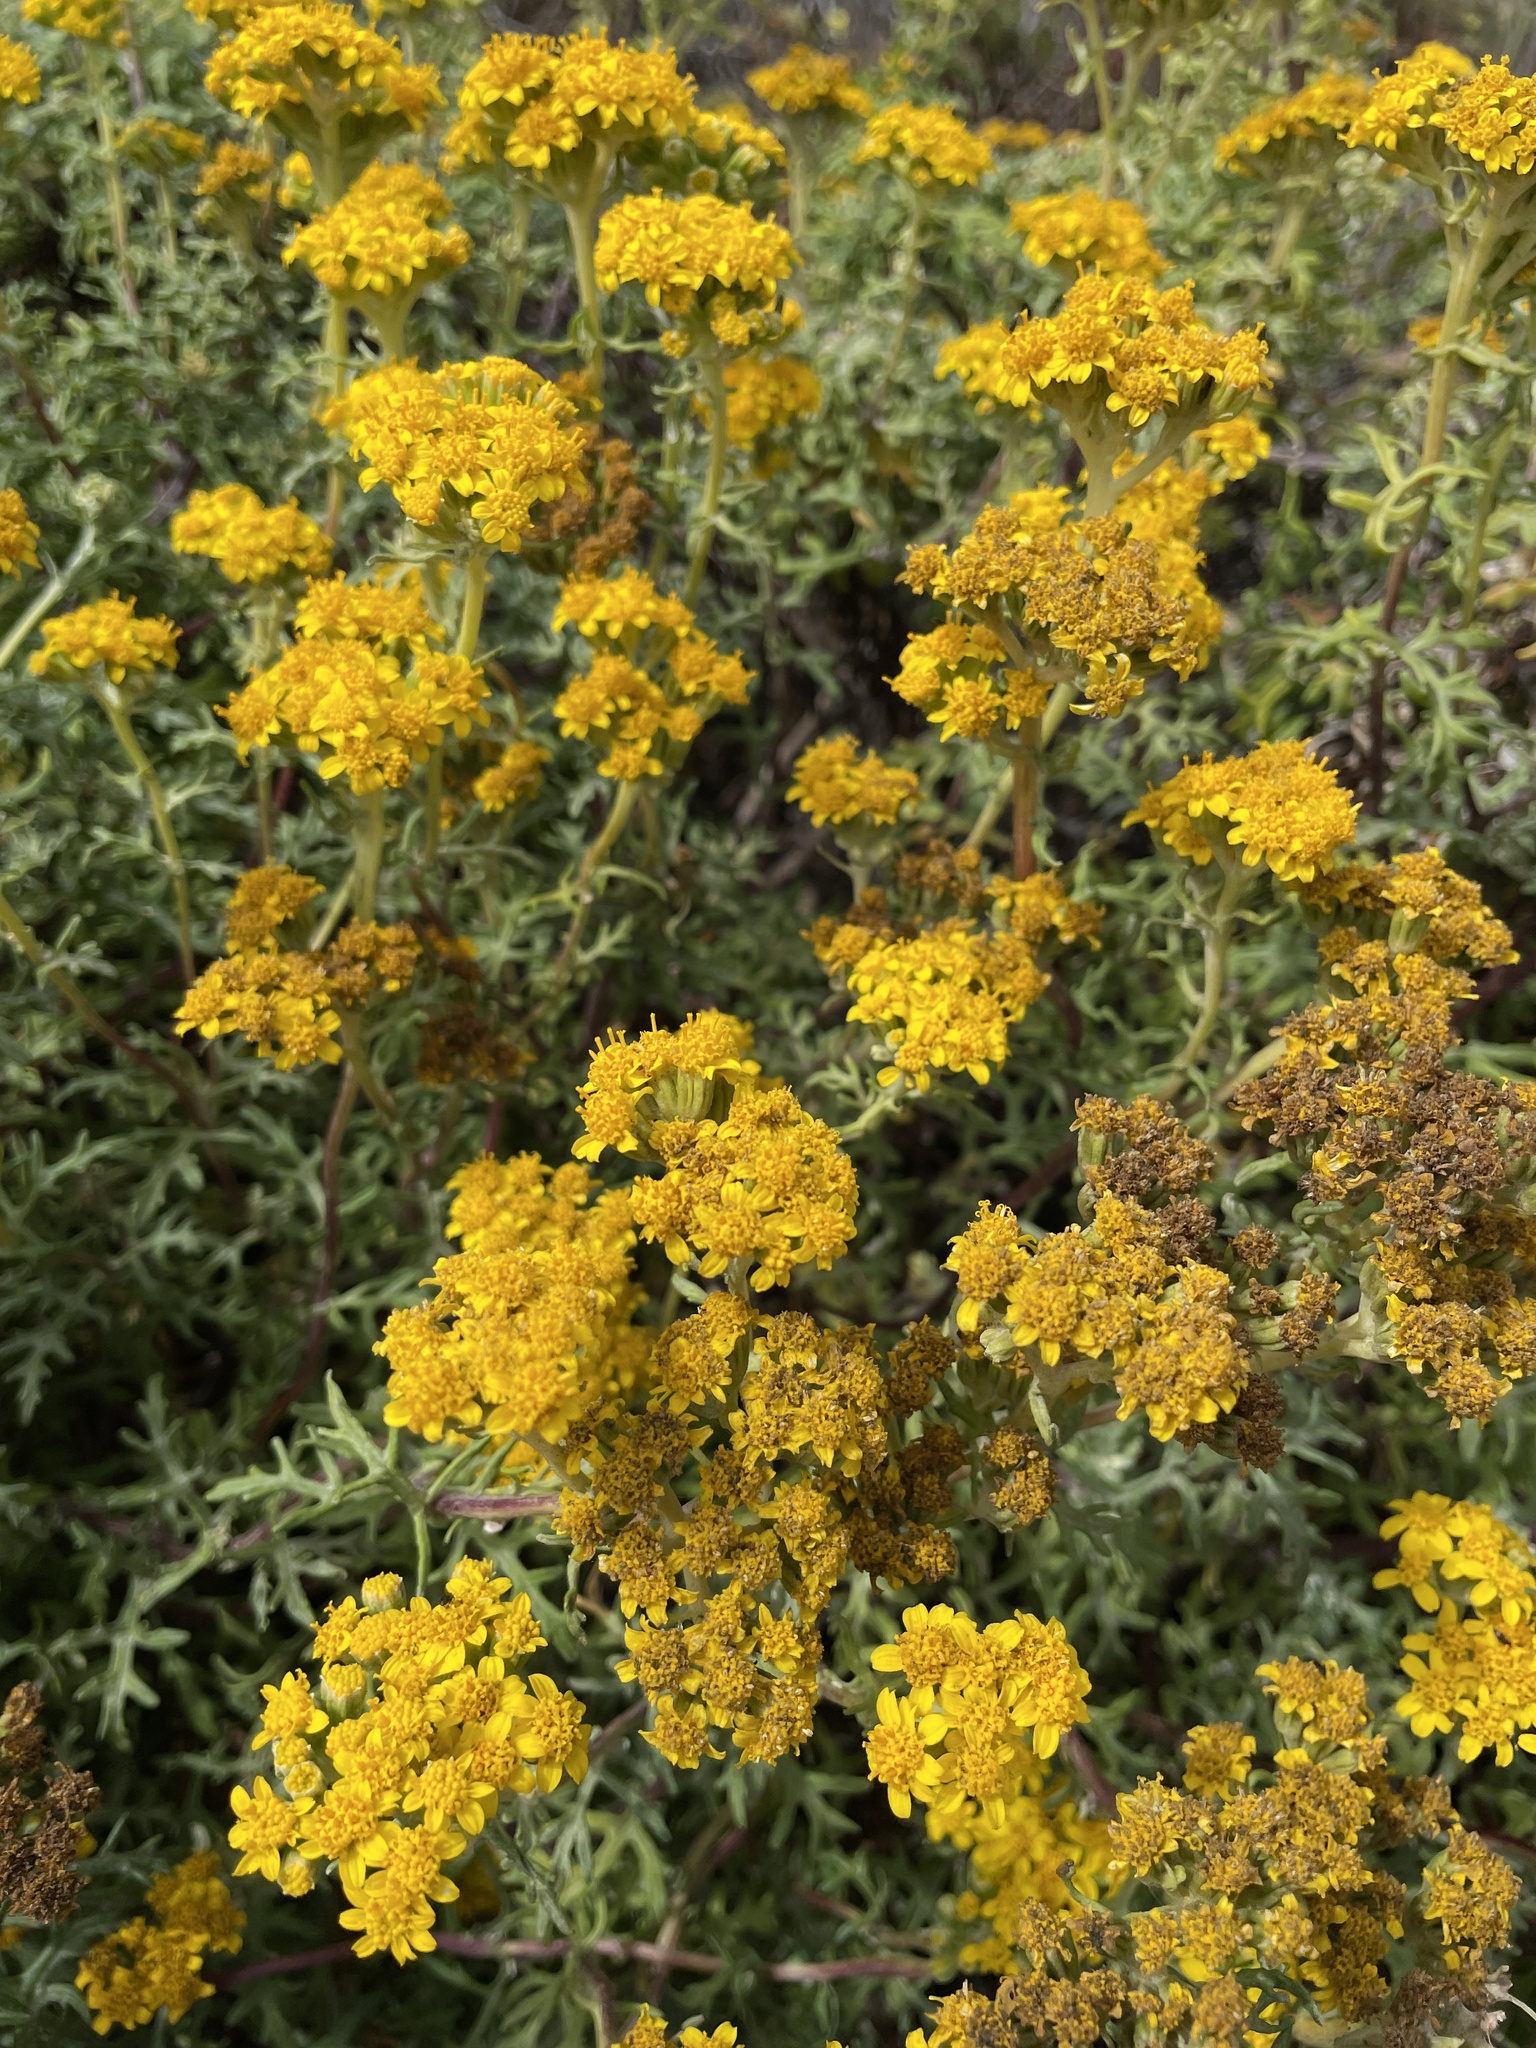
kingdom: Plantae
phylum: Tracheophyta
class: Magnoliopsida
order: Asterales
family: Asteraceae
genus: Eriophyllum
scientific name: Eriophyllum staechadifolium
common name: Lizardtail
